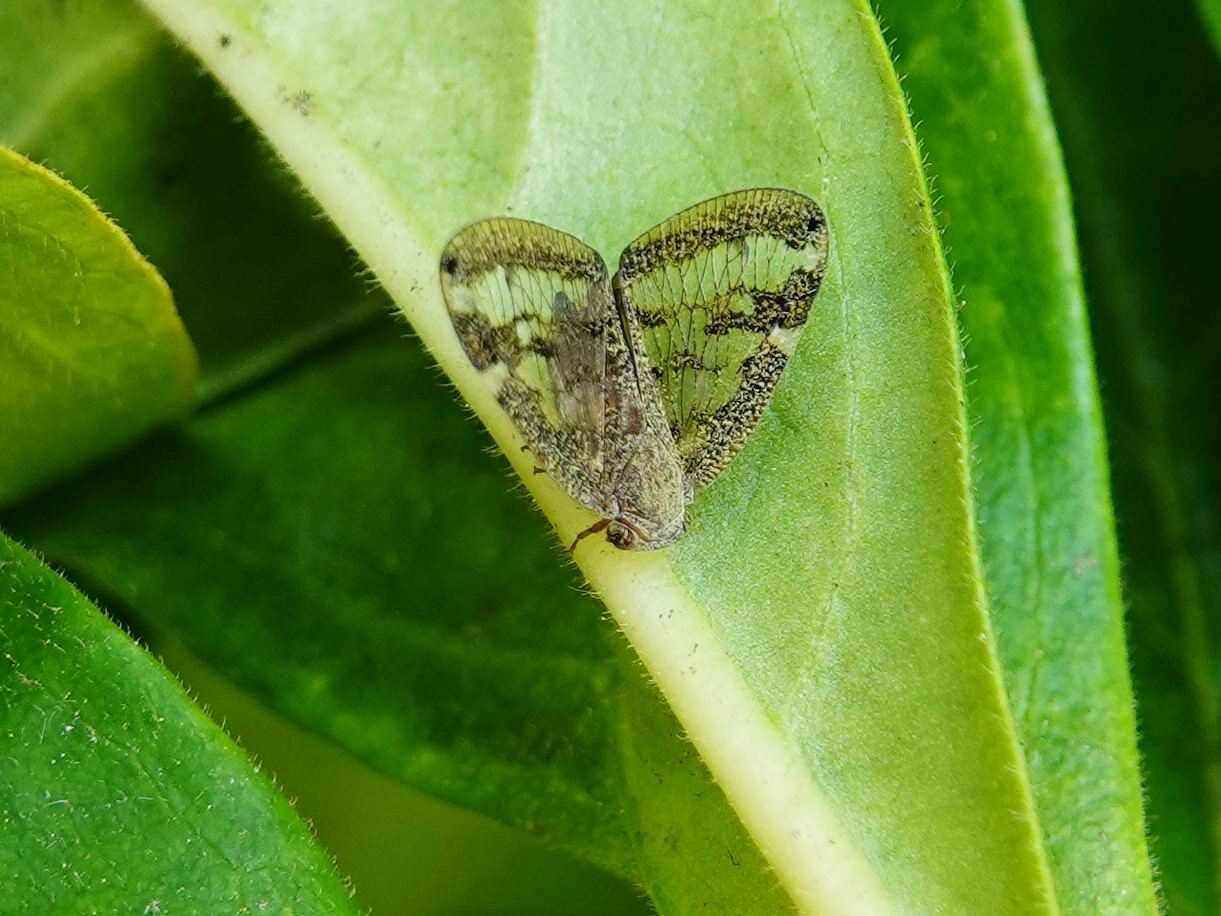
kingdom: Animalia
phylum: Arthropoda
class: Insecta
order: Hemiptera
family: Ricaniidae
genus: Scolypopa
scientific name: Scolypopa australis
